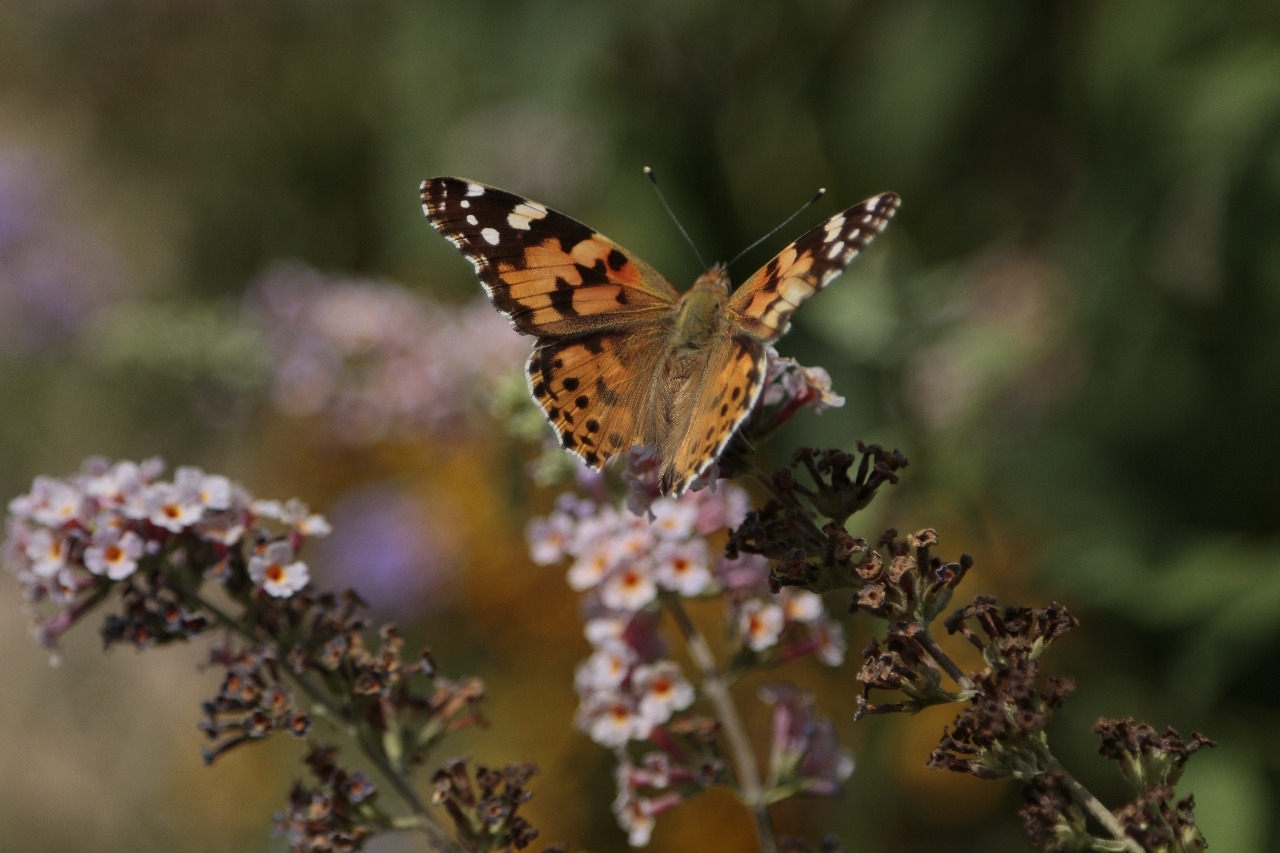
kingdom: Animalia
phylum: Arthropoda
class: Insecta
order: Lepidoptera
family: Nymphalidae
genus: Vanessa
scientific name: Vanessa cardui
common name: Painted lady
